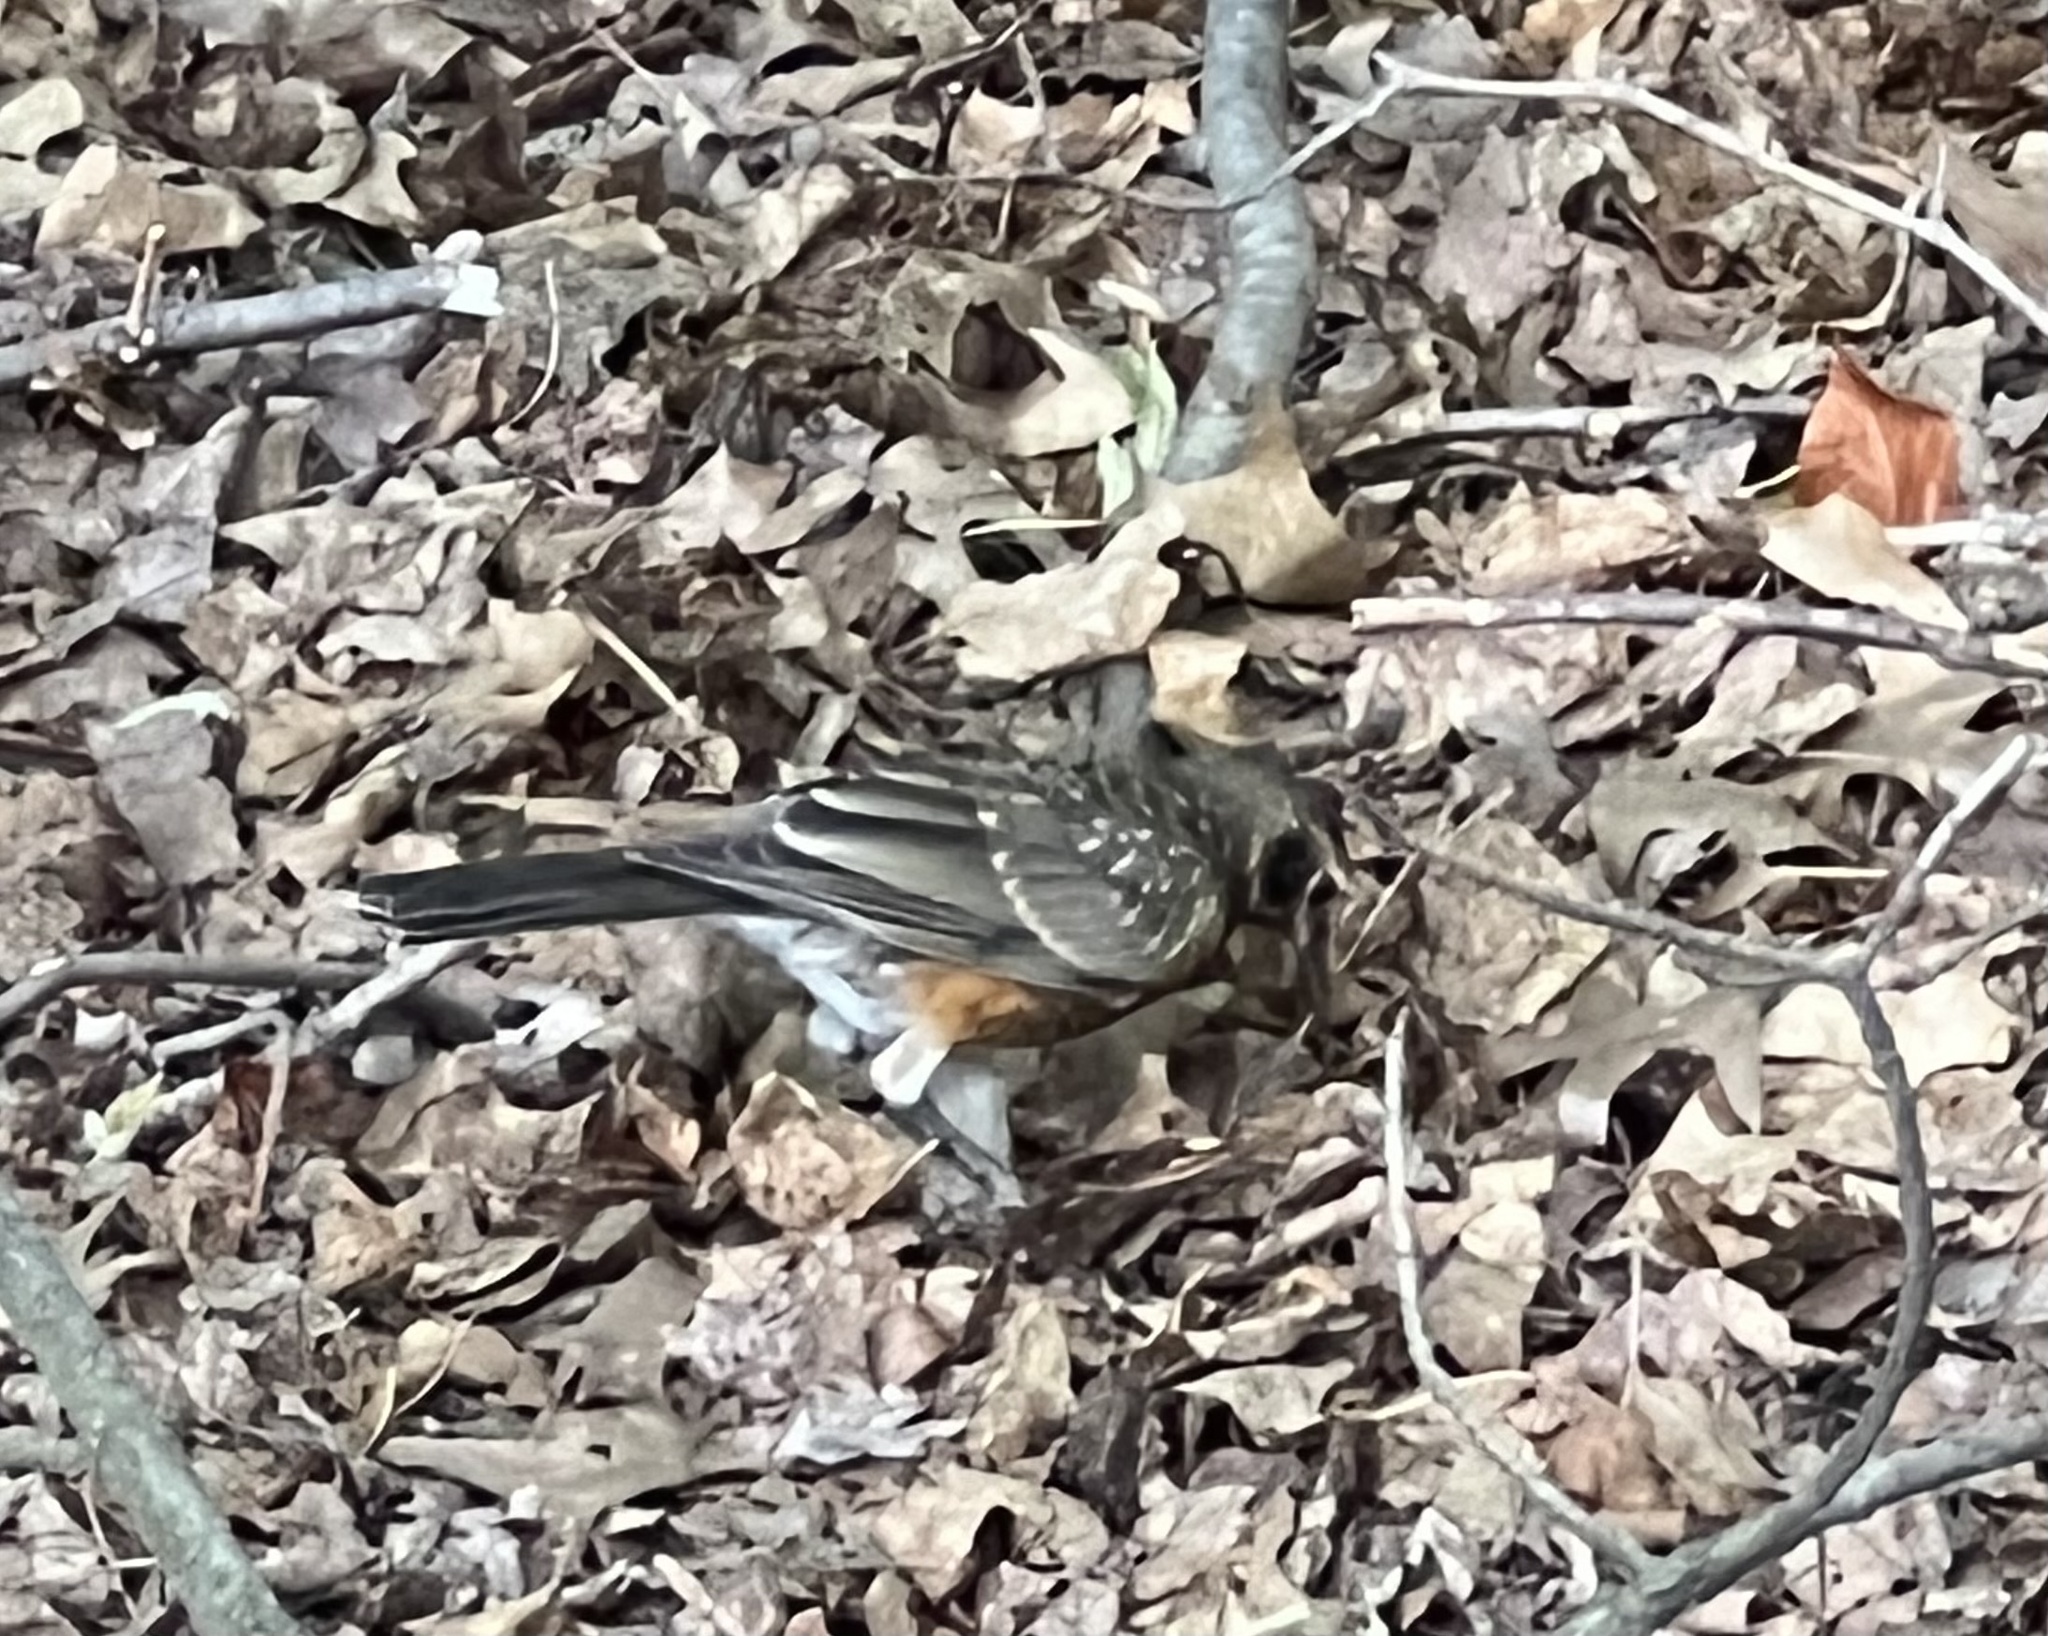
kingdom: Animalia
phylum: Chordata
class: Aves
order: Passeriformes
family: Turdidae
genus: Turdus
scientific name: Turdus migratorius
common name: American robin
